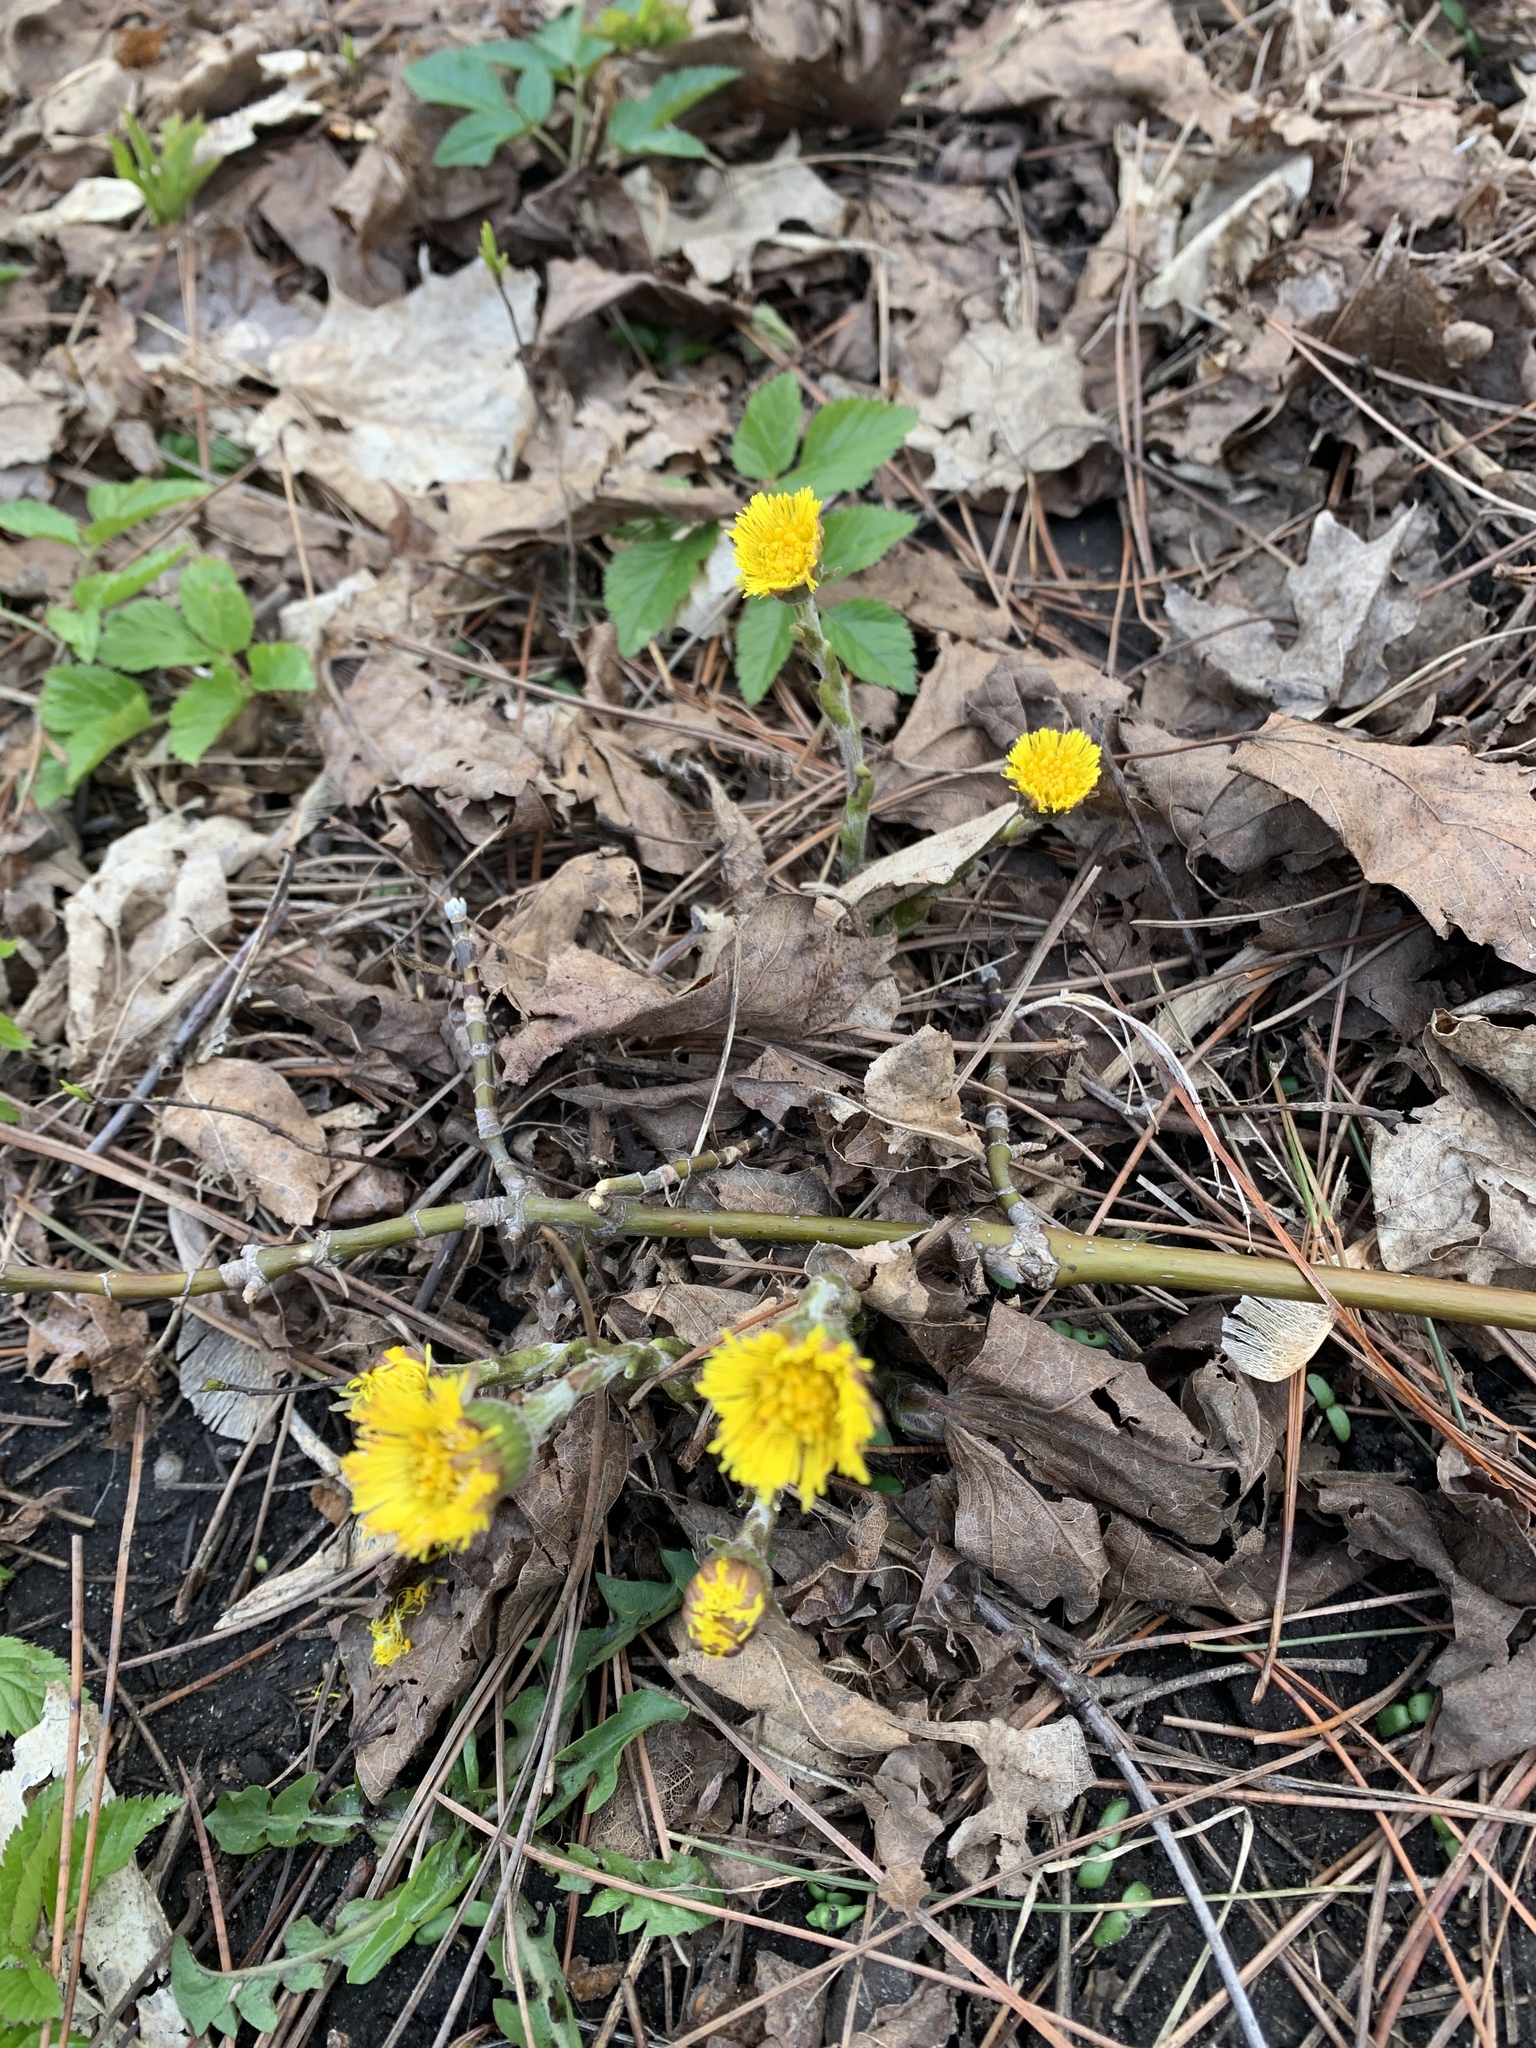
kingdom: Plantae
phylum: Tracheophyta
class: Magnoliopsida
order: Asterales
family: Asteraceae
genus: Tussilago
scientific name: Tussilago farfara
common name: Coltsfoot
